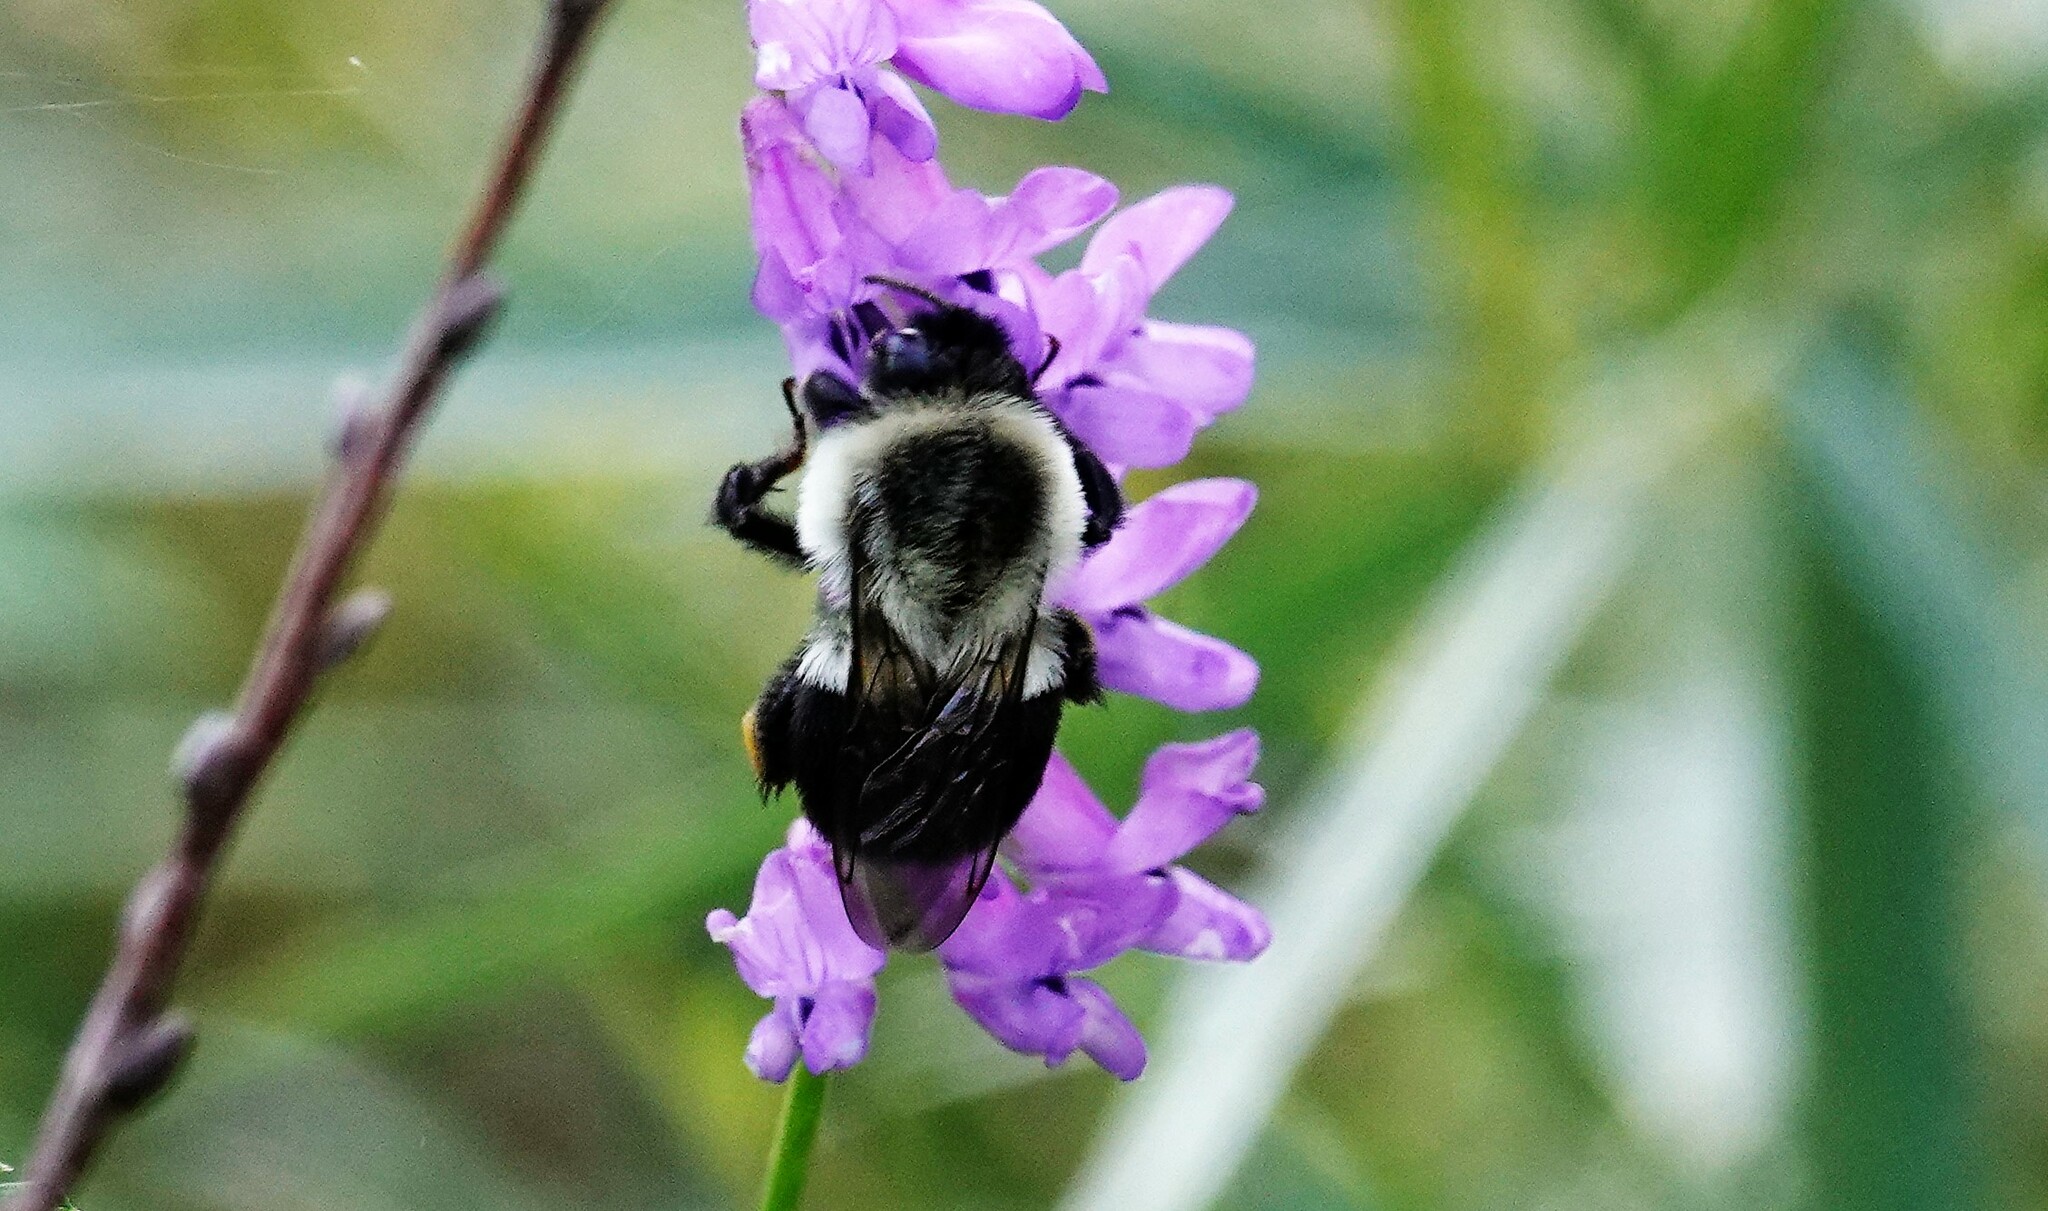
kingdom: Animalia
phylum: Arthropoda
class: Insecta
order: Hymenoptera
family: Apidae
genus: Bombus
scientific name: Bombus impatiens
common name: Common eastern bumble bee
